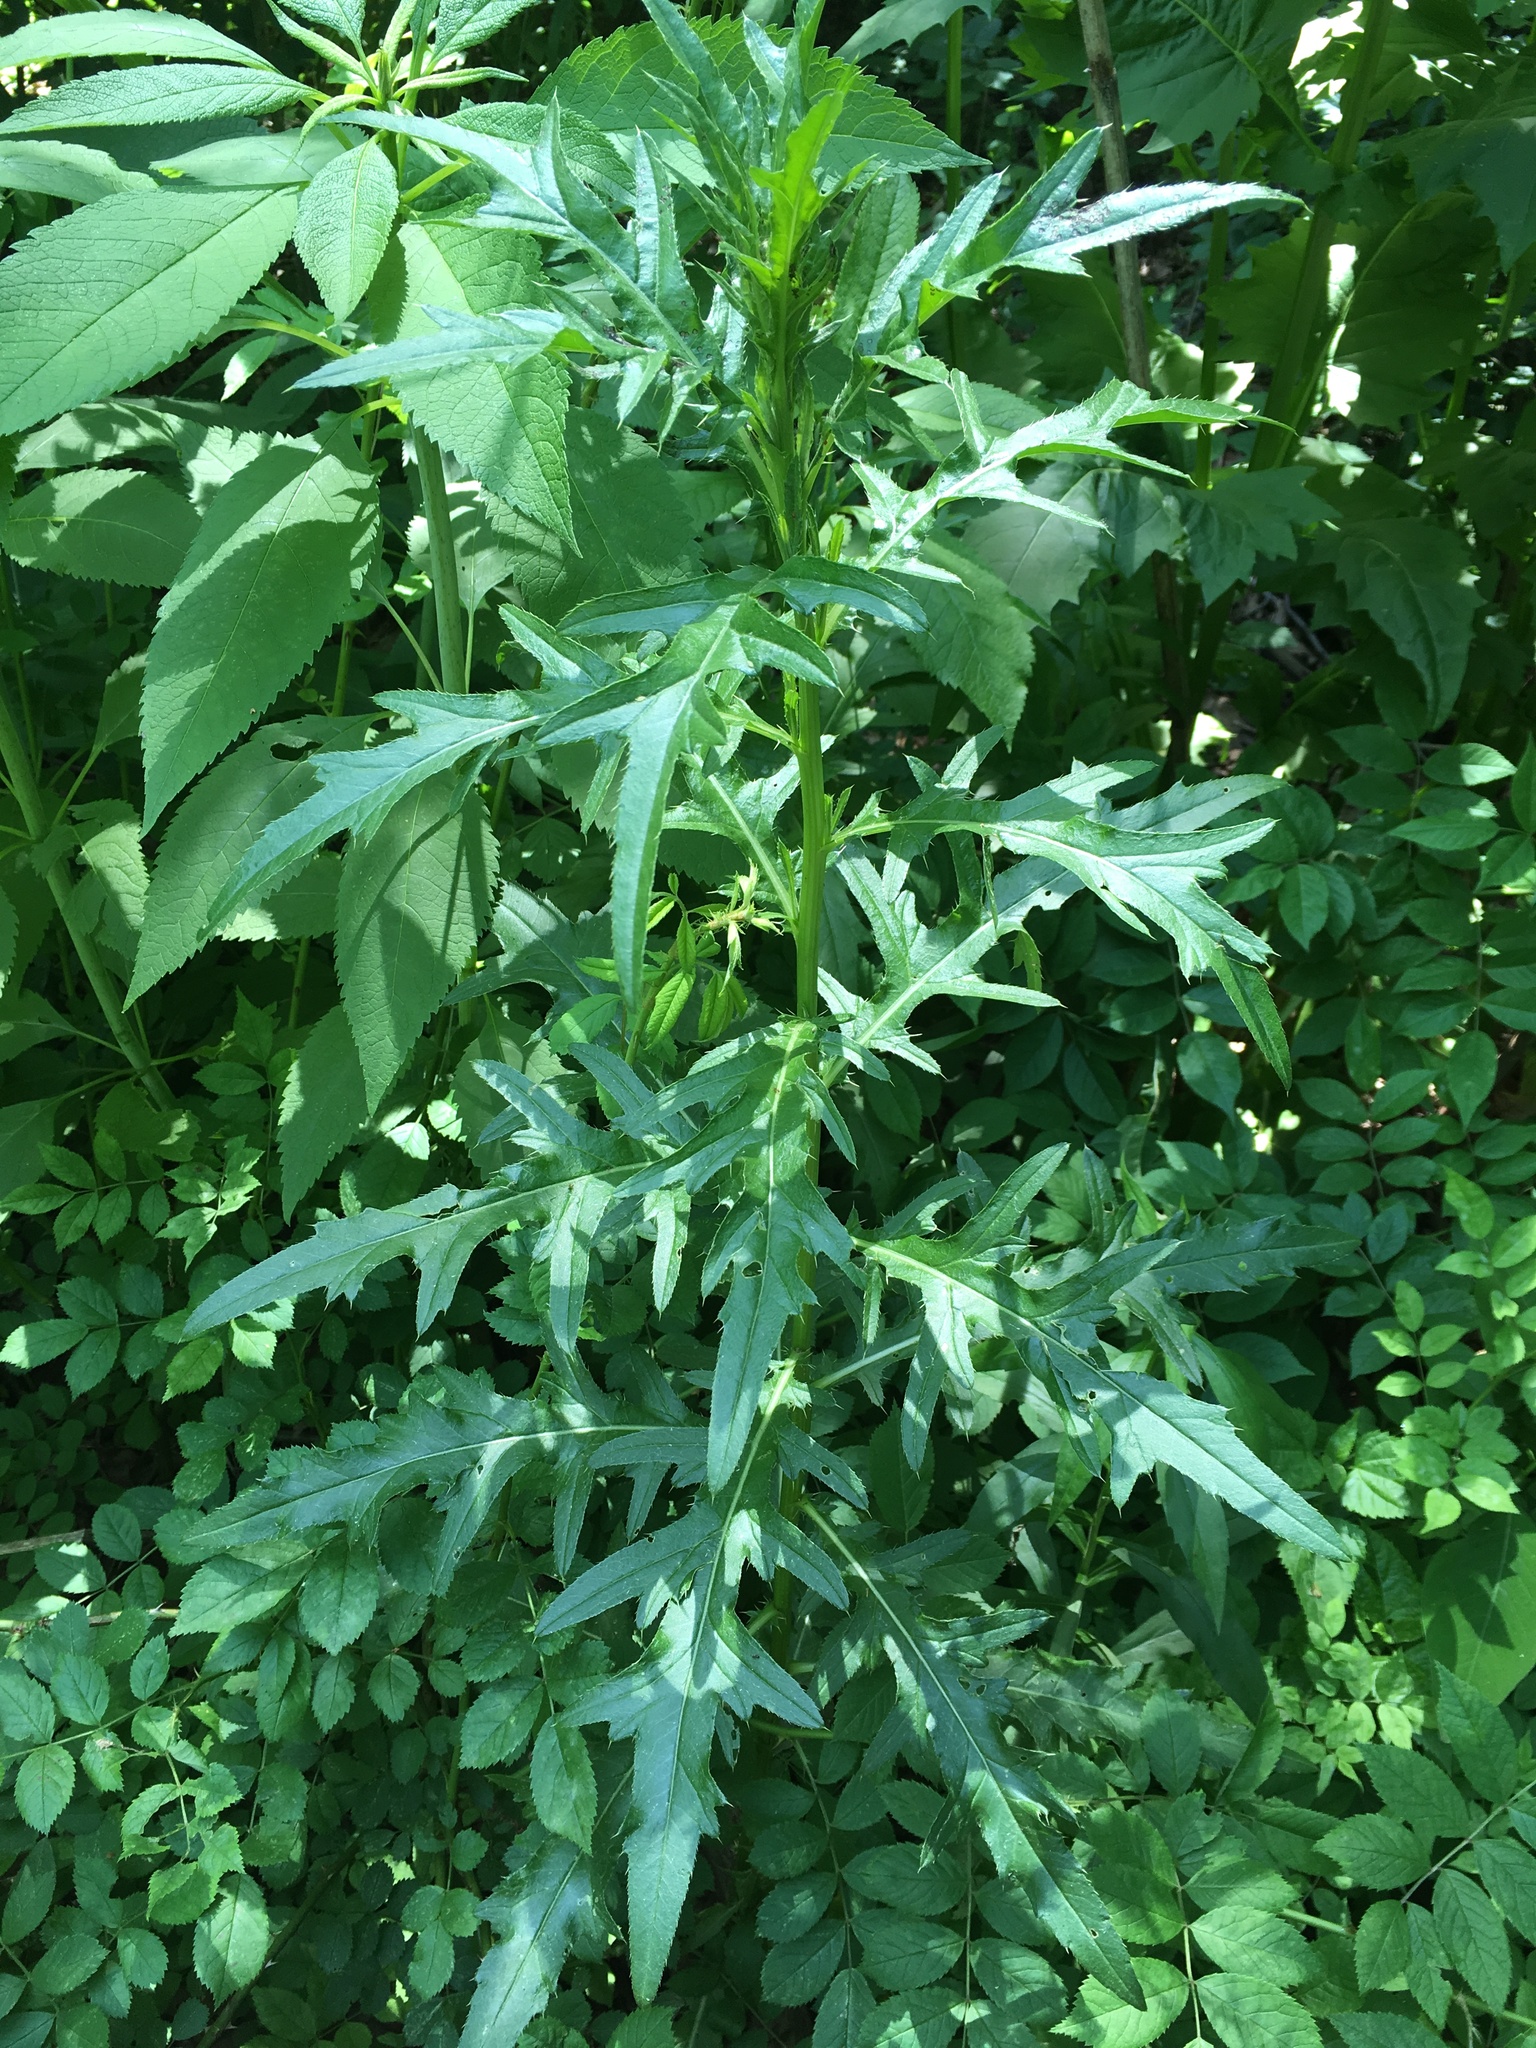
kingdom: Plantae
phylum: Tracheophyta
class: Magnoliopsida
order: Asterales
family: Asteraceae
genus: Cirsium
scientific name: Cirsium arvense
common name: Creeping thistle
